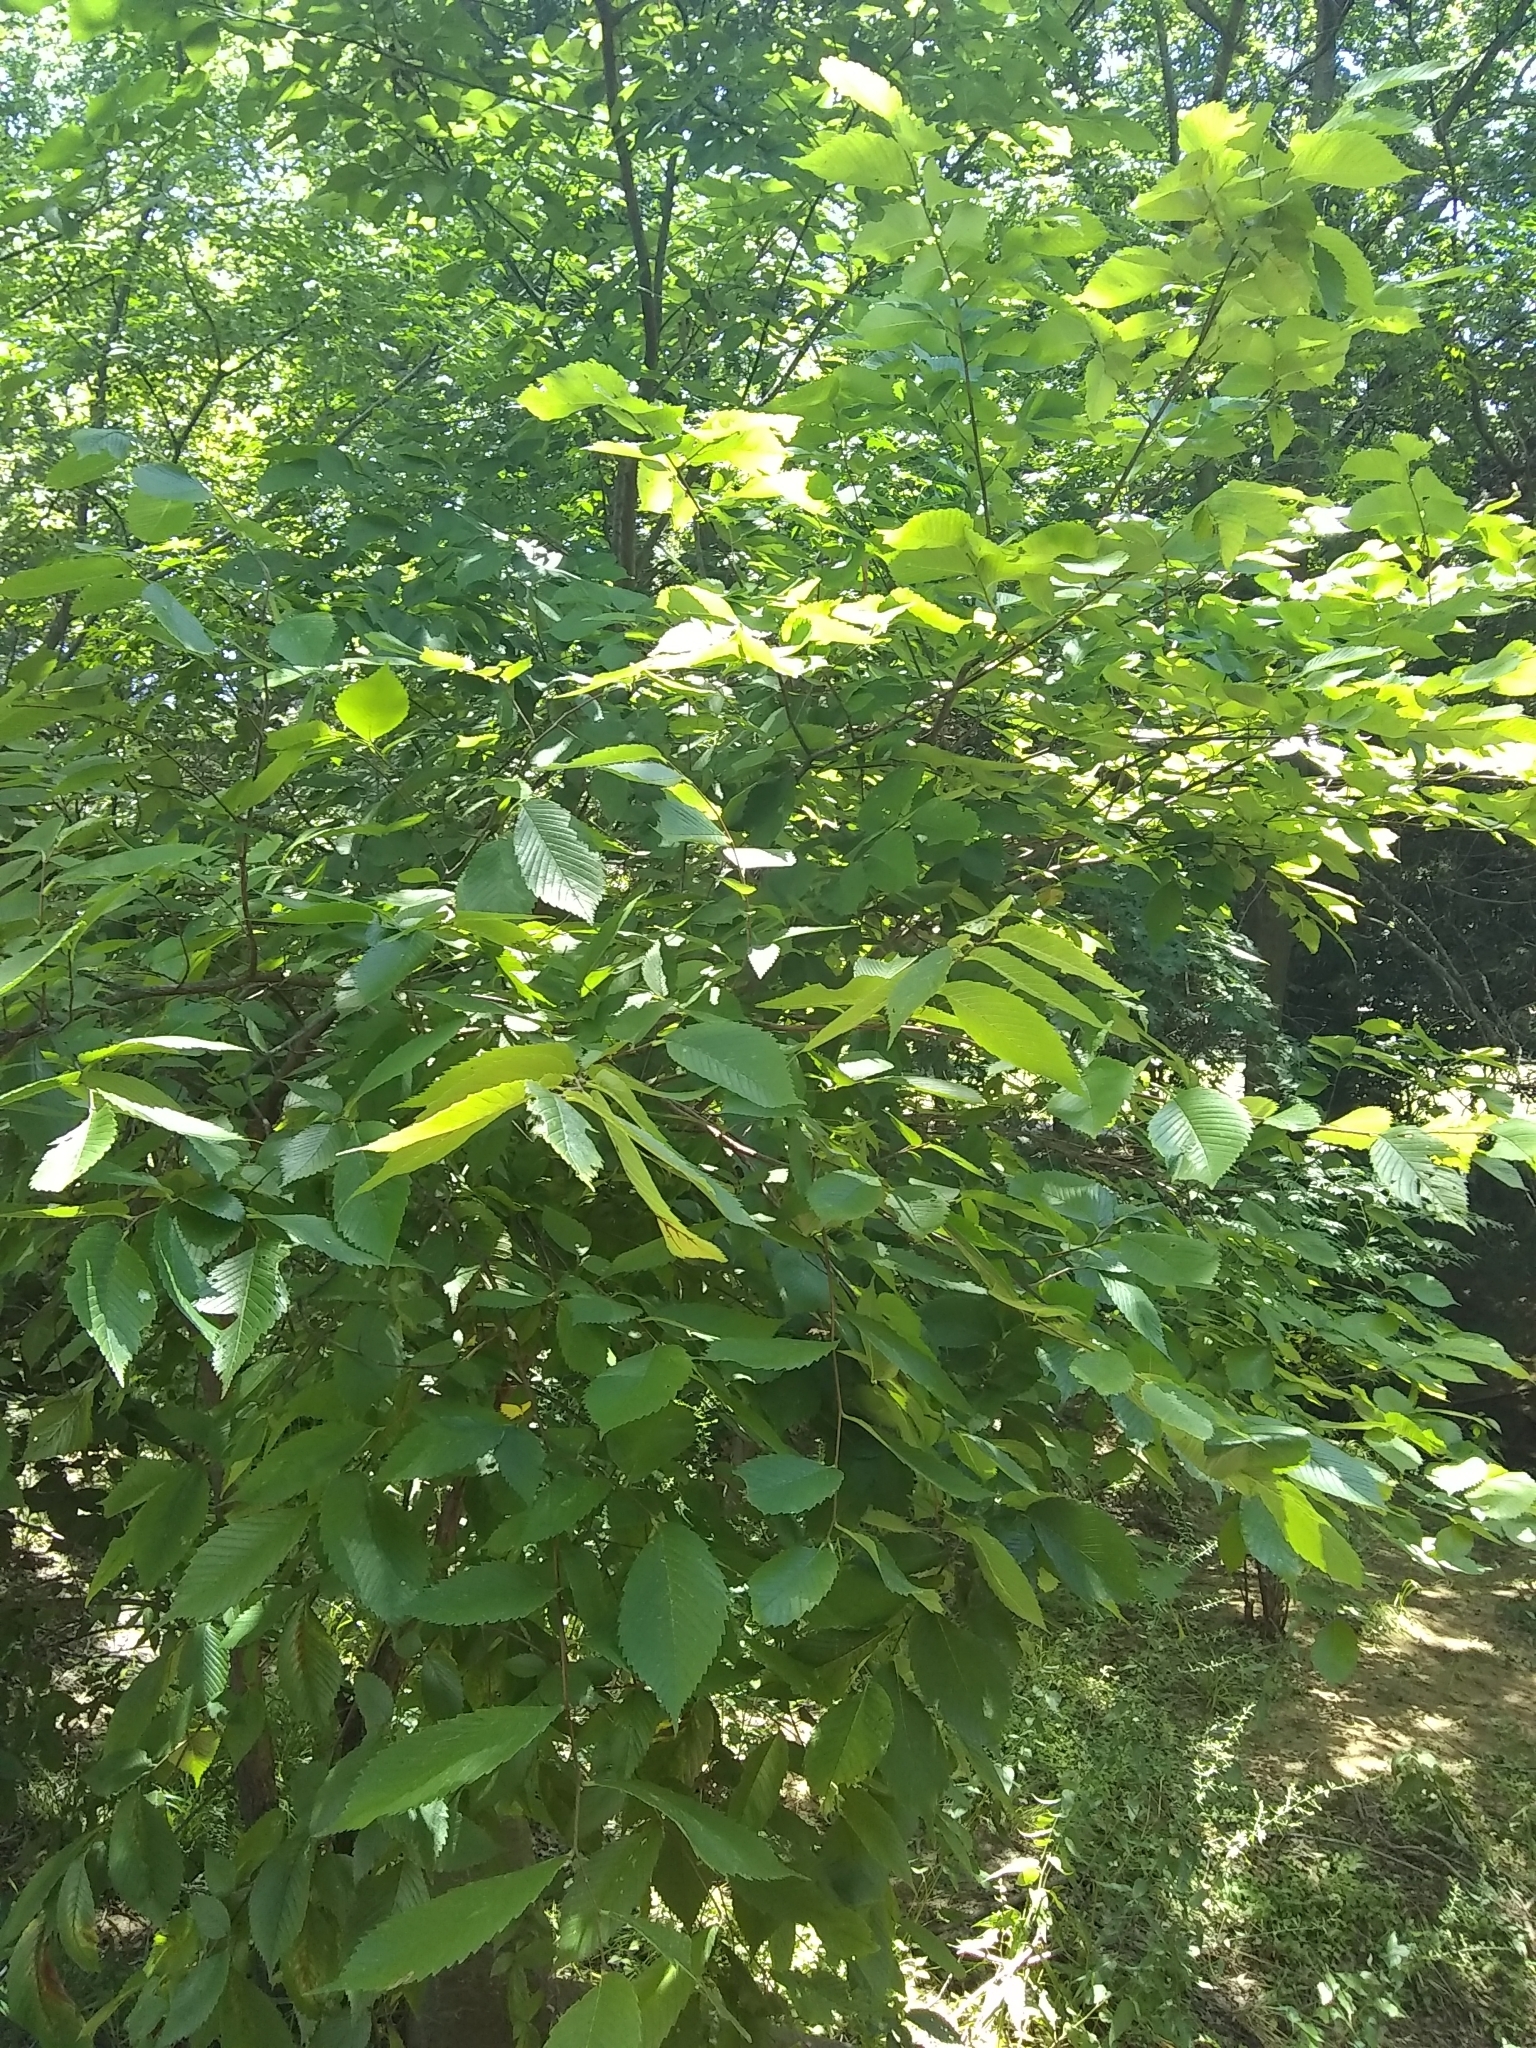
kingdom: Plantae
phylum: Tracheophyta
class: Magnoliopsida
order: Rosales
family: Ulmaceae
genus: Ulmus
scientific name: Ulmus americana
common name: American elm
